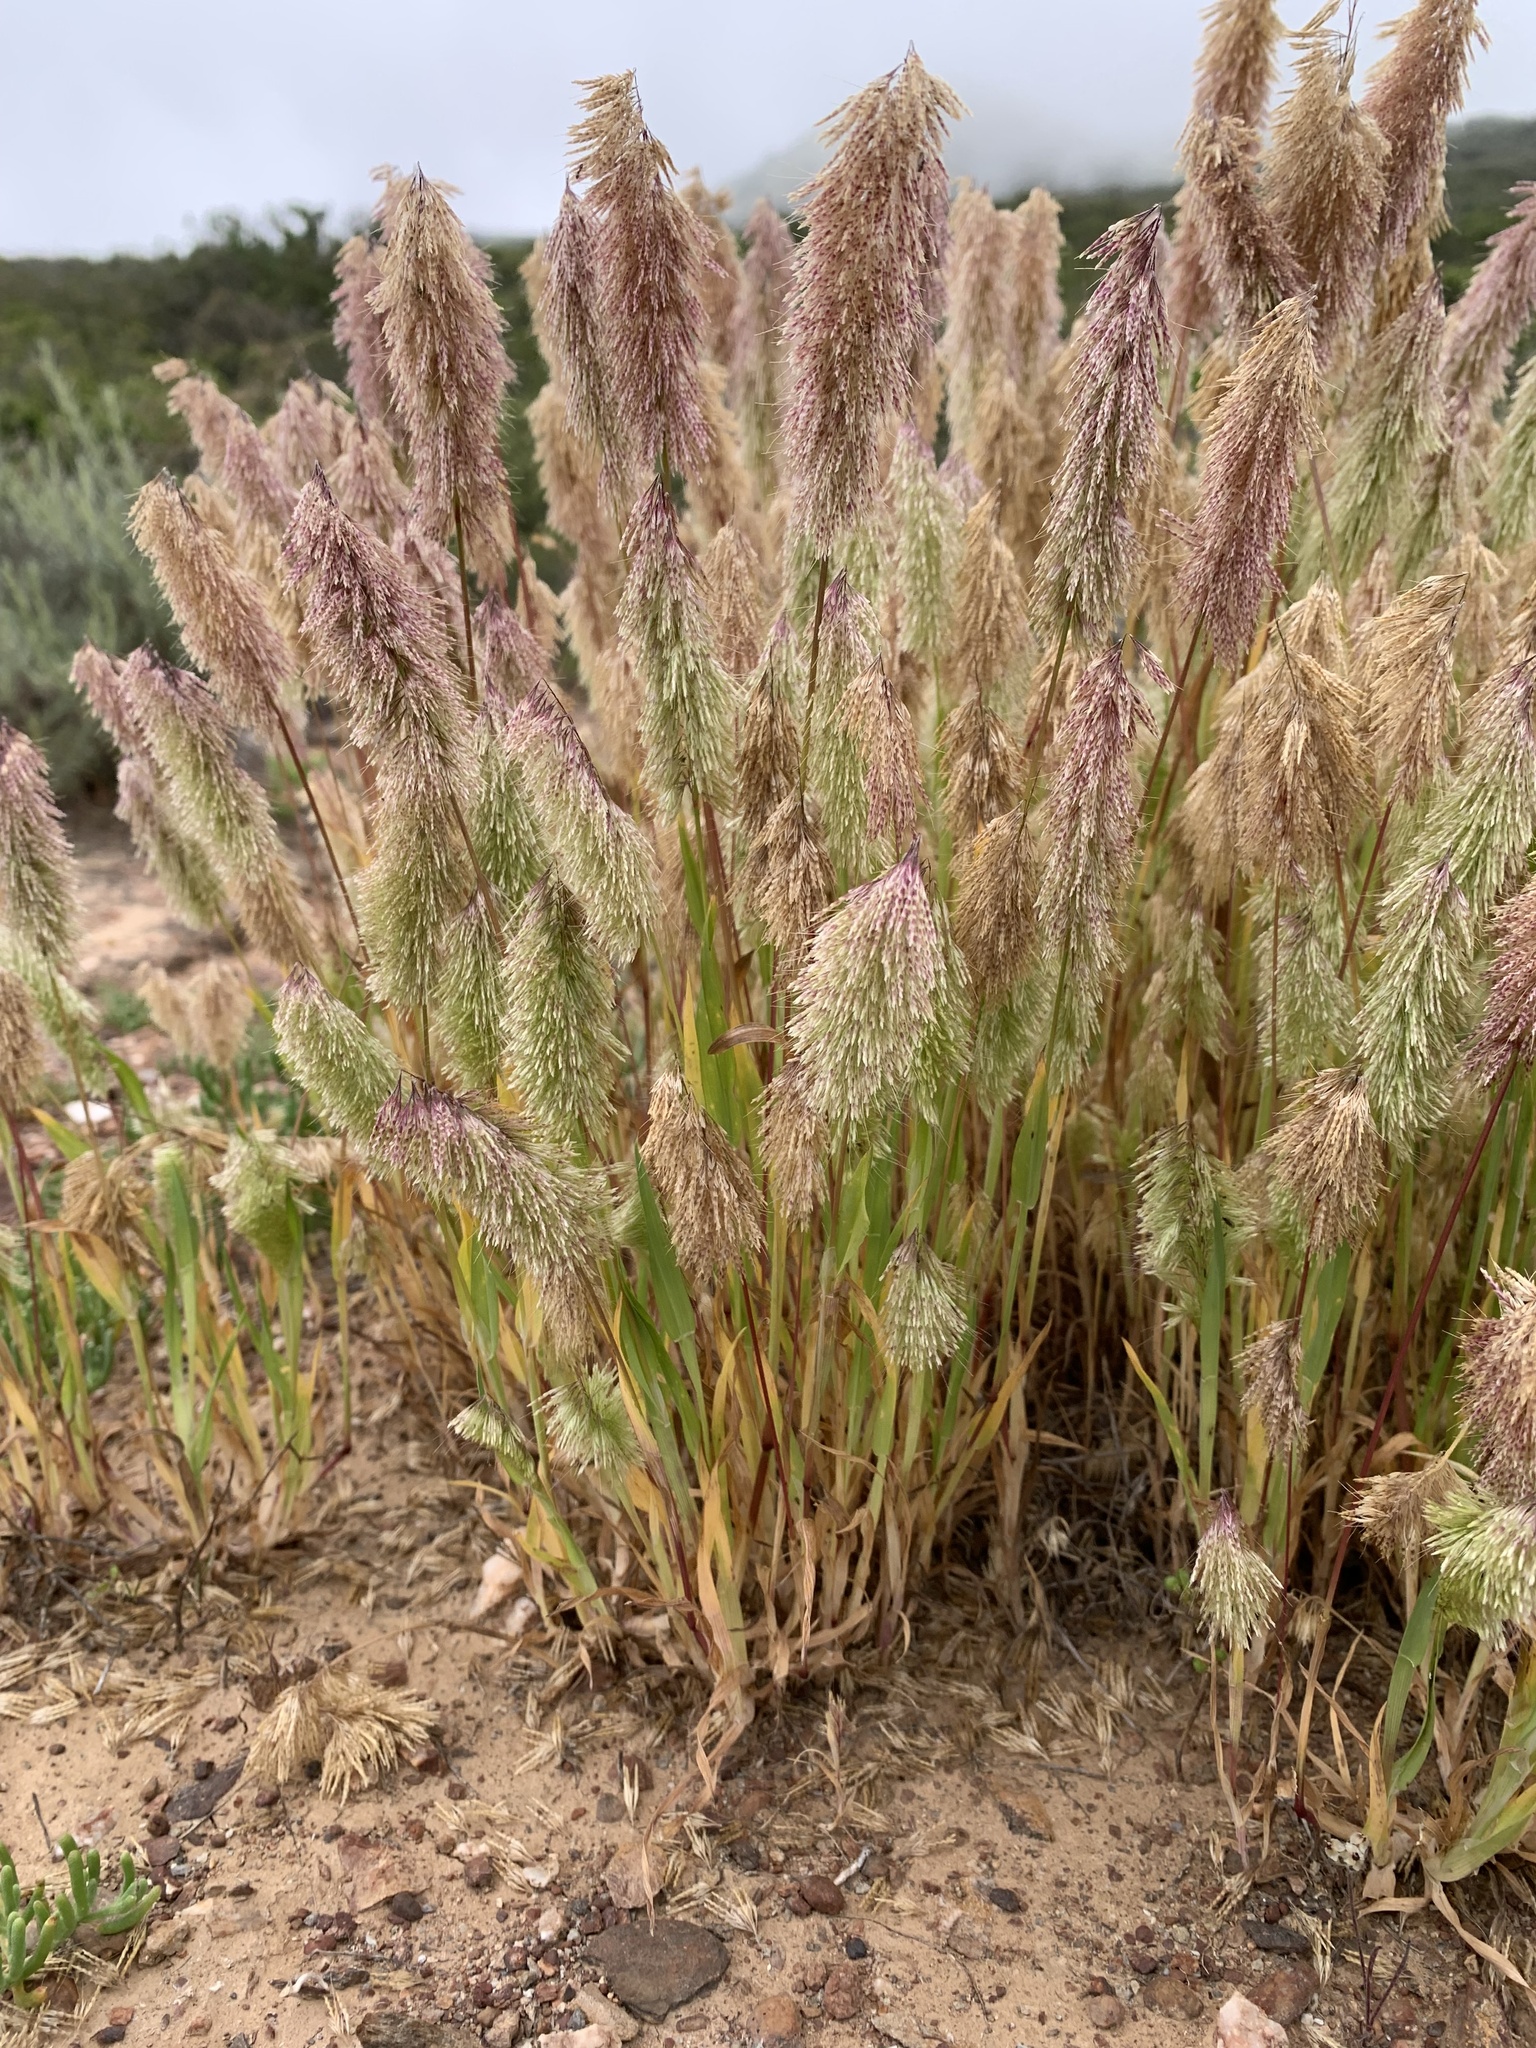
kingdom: Plantae
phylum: Tracheophyta
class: Liliopsida
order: Poales
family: Poaceae
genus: Lamarckia
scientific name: Lamarckia aurea
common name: Golden dog's-tail
